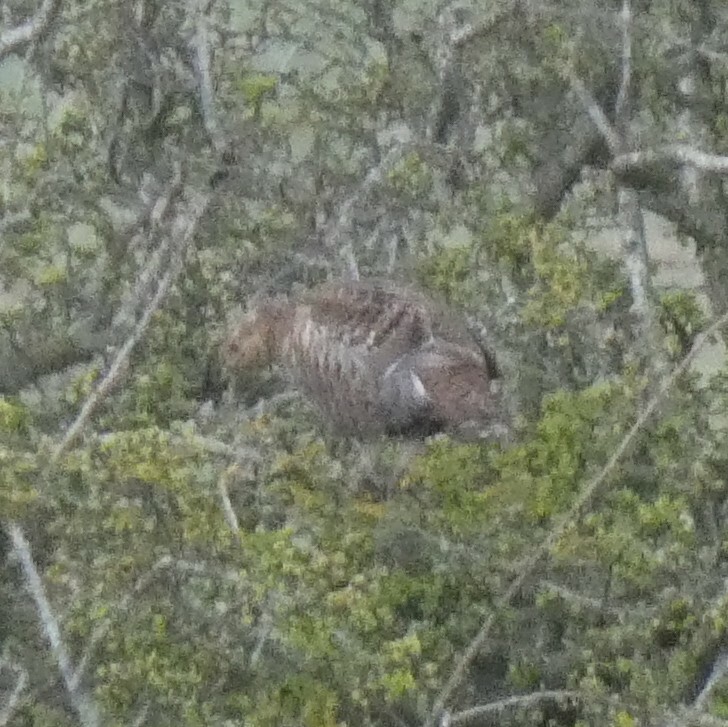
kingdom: Animalia
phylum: Chordata
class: Aves
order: Galliformes
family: Phasianidae
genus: Lyrurus
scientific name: Lyrurus tetrix
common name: Black grouse
